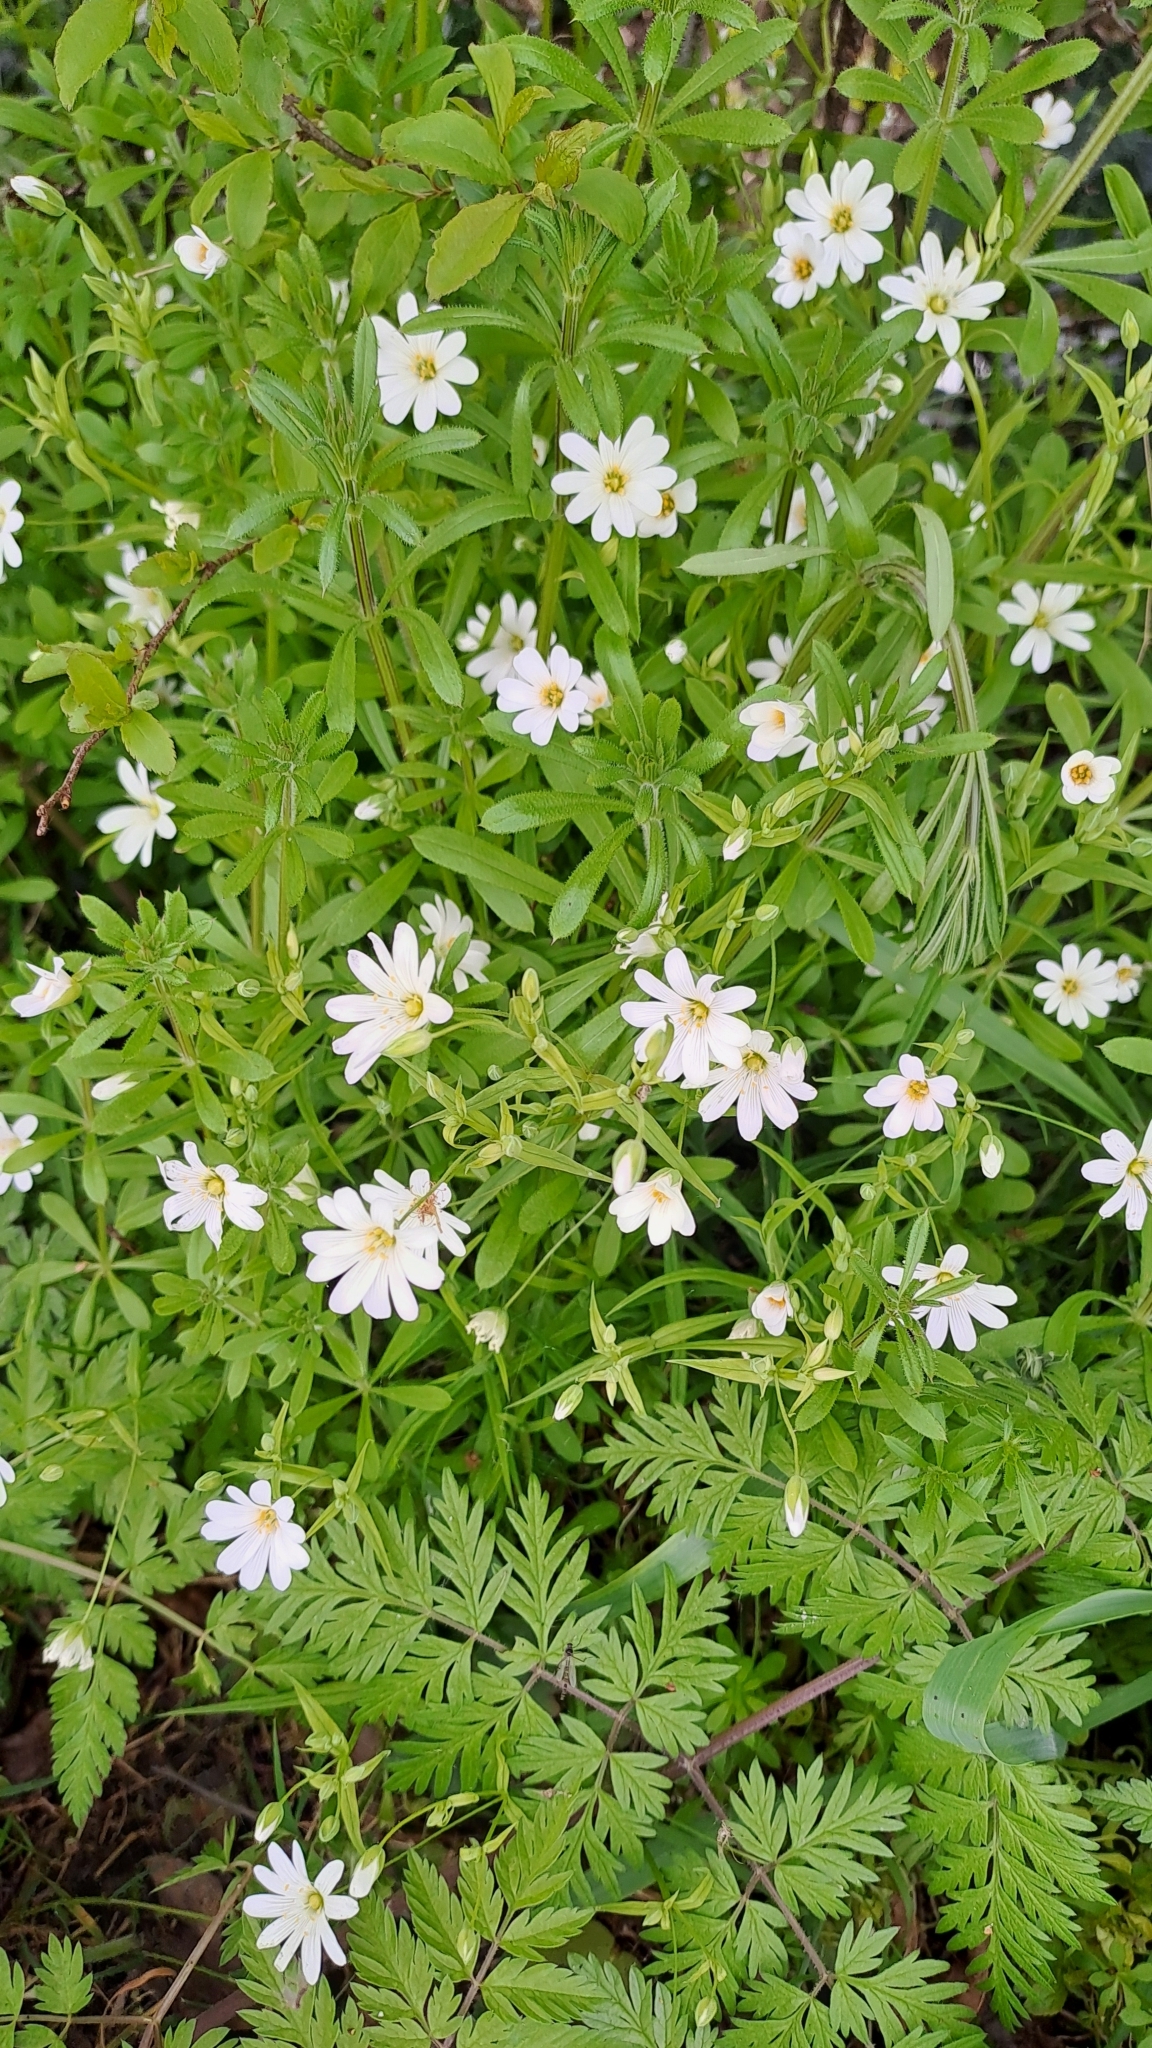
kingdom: Plantae
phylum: Tracheophyta
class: Magnoliopsida
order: Caryophyllales
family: Caryophyllaceae
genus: Rabelera
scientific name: Rabelera holostea
